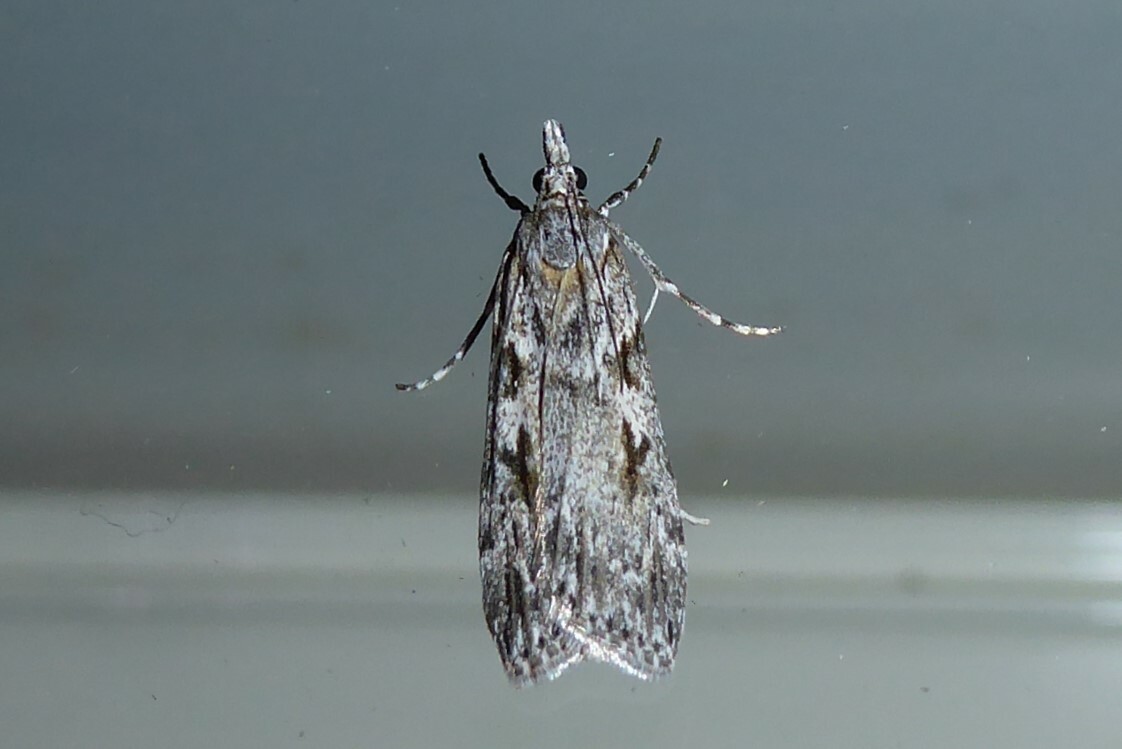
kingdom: Animalia
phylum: Arthropoda
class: Insecta
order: Lepidoptera
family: Crambidae
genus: Scoparia
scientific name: Scoparia halopis
